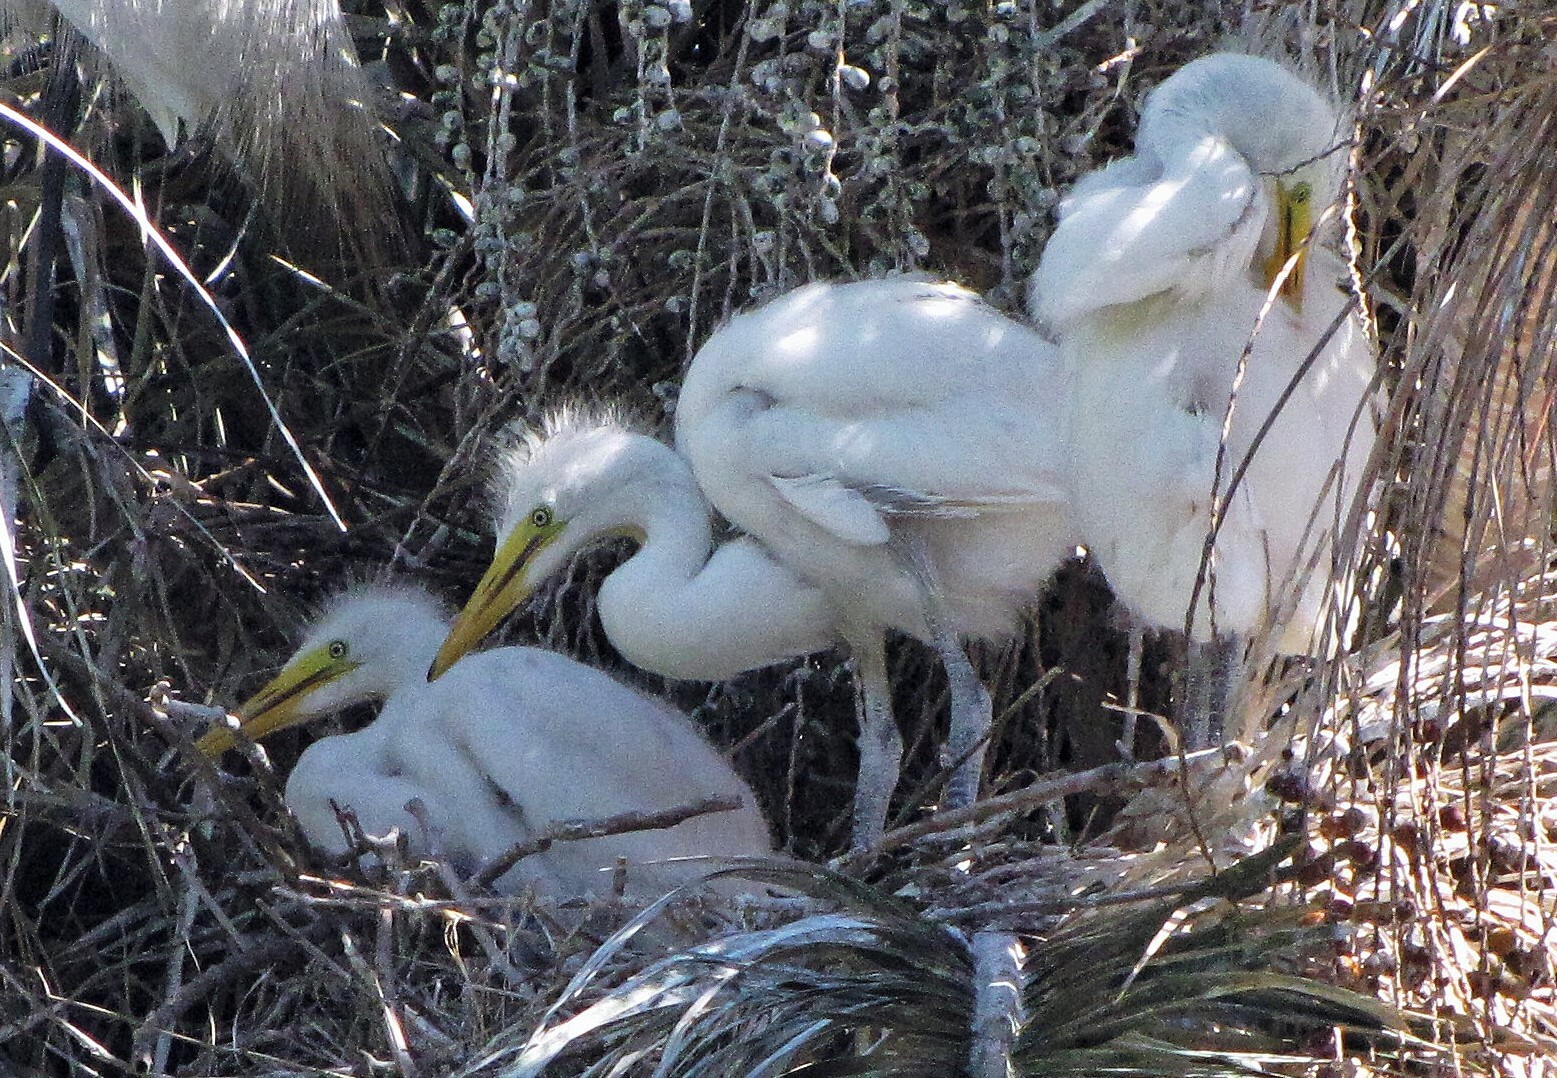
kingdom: Animalia
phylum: Chordata
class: Aves
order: Pelecaniformes
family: Ardeidae
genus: Ardea
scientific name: Ardea alba
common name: Great egret
